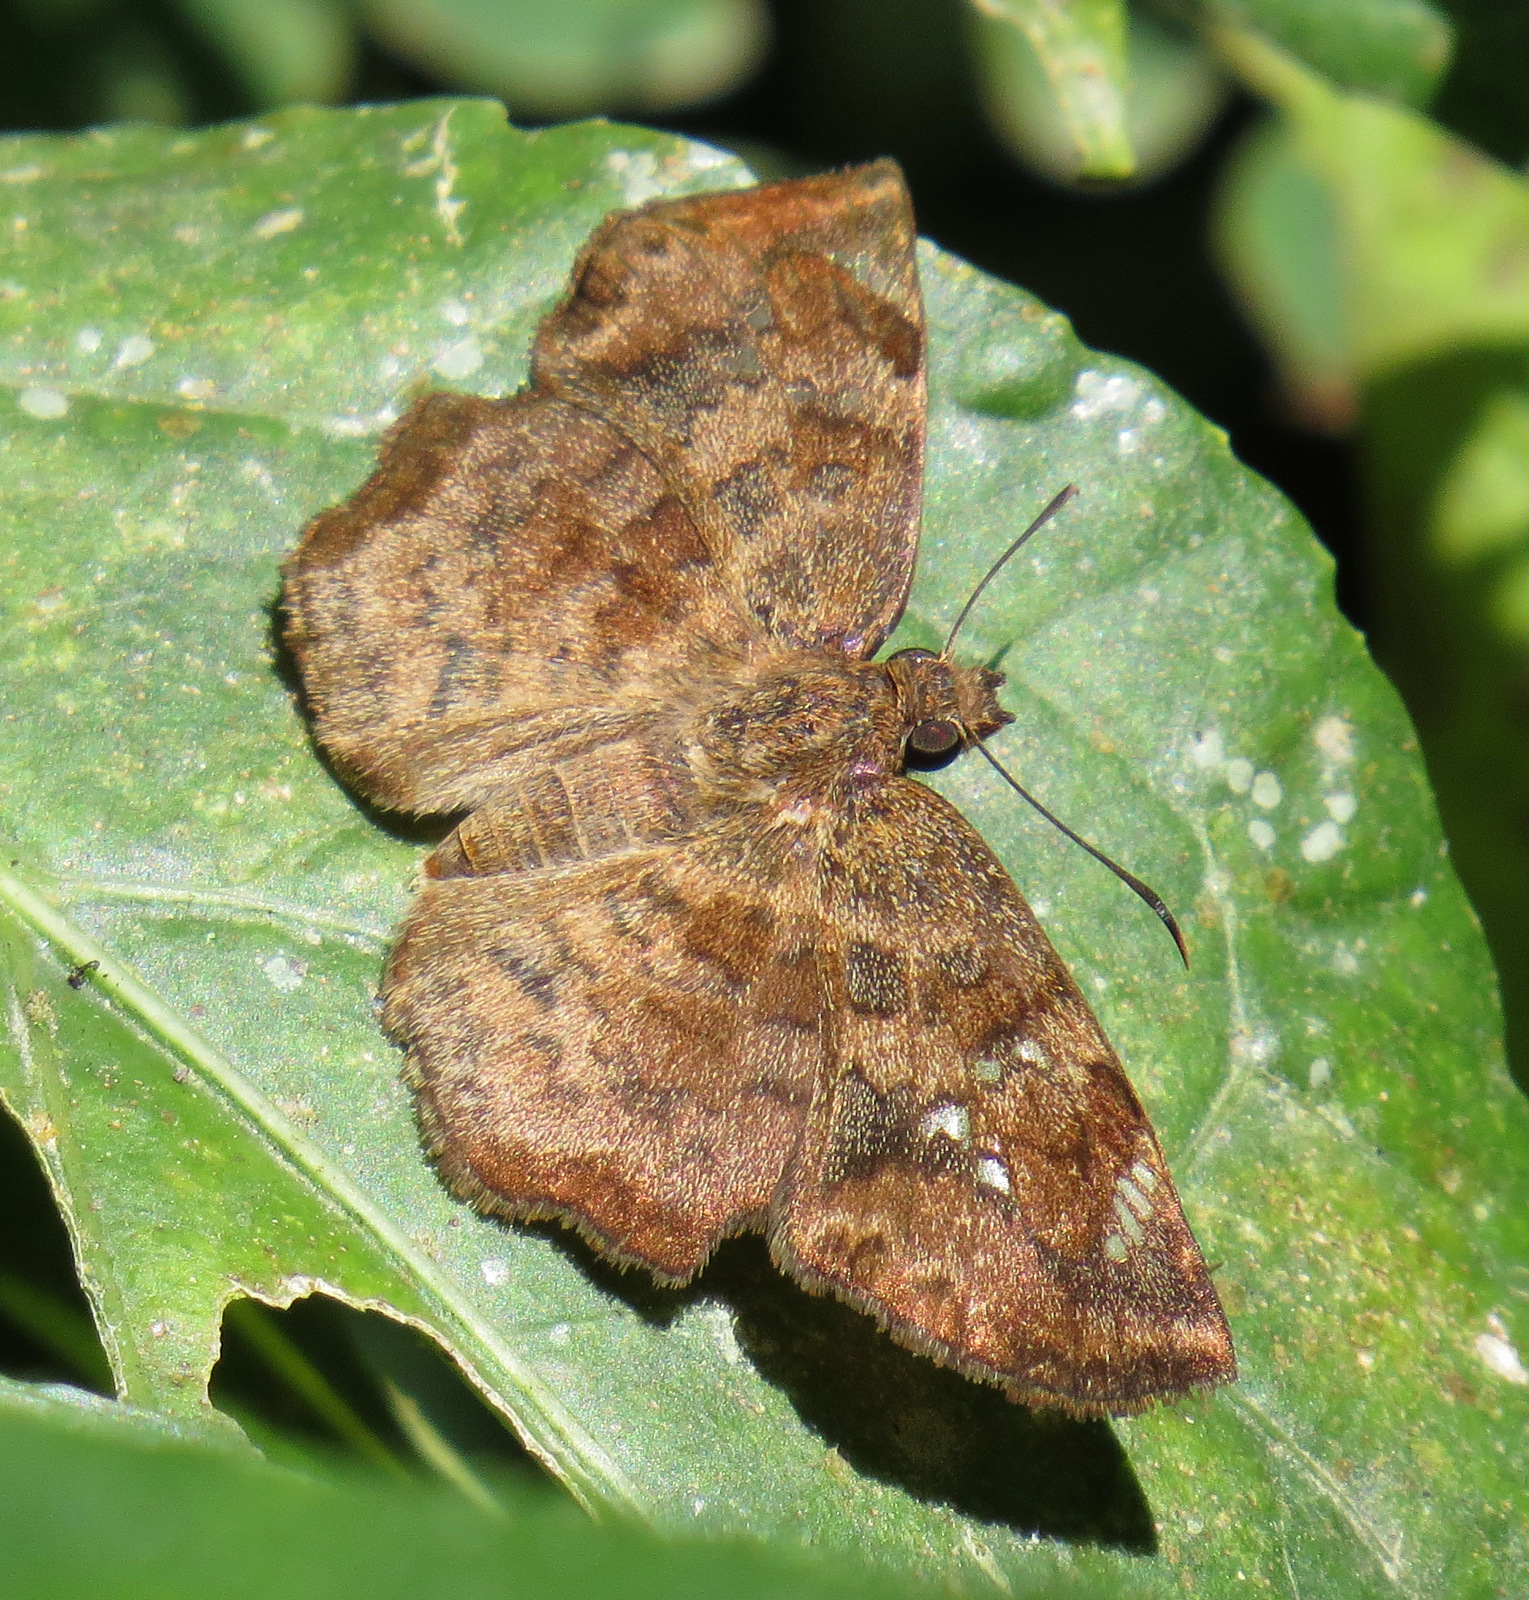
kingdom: Animalia
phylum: Arthropoda
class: Insecta
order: Lepidoptera
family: Hesperiidae
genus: Antigonus
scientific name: Antigonus erosus
